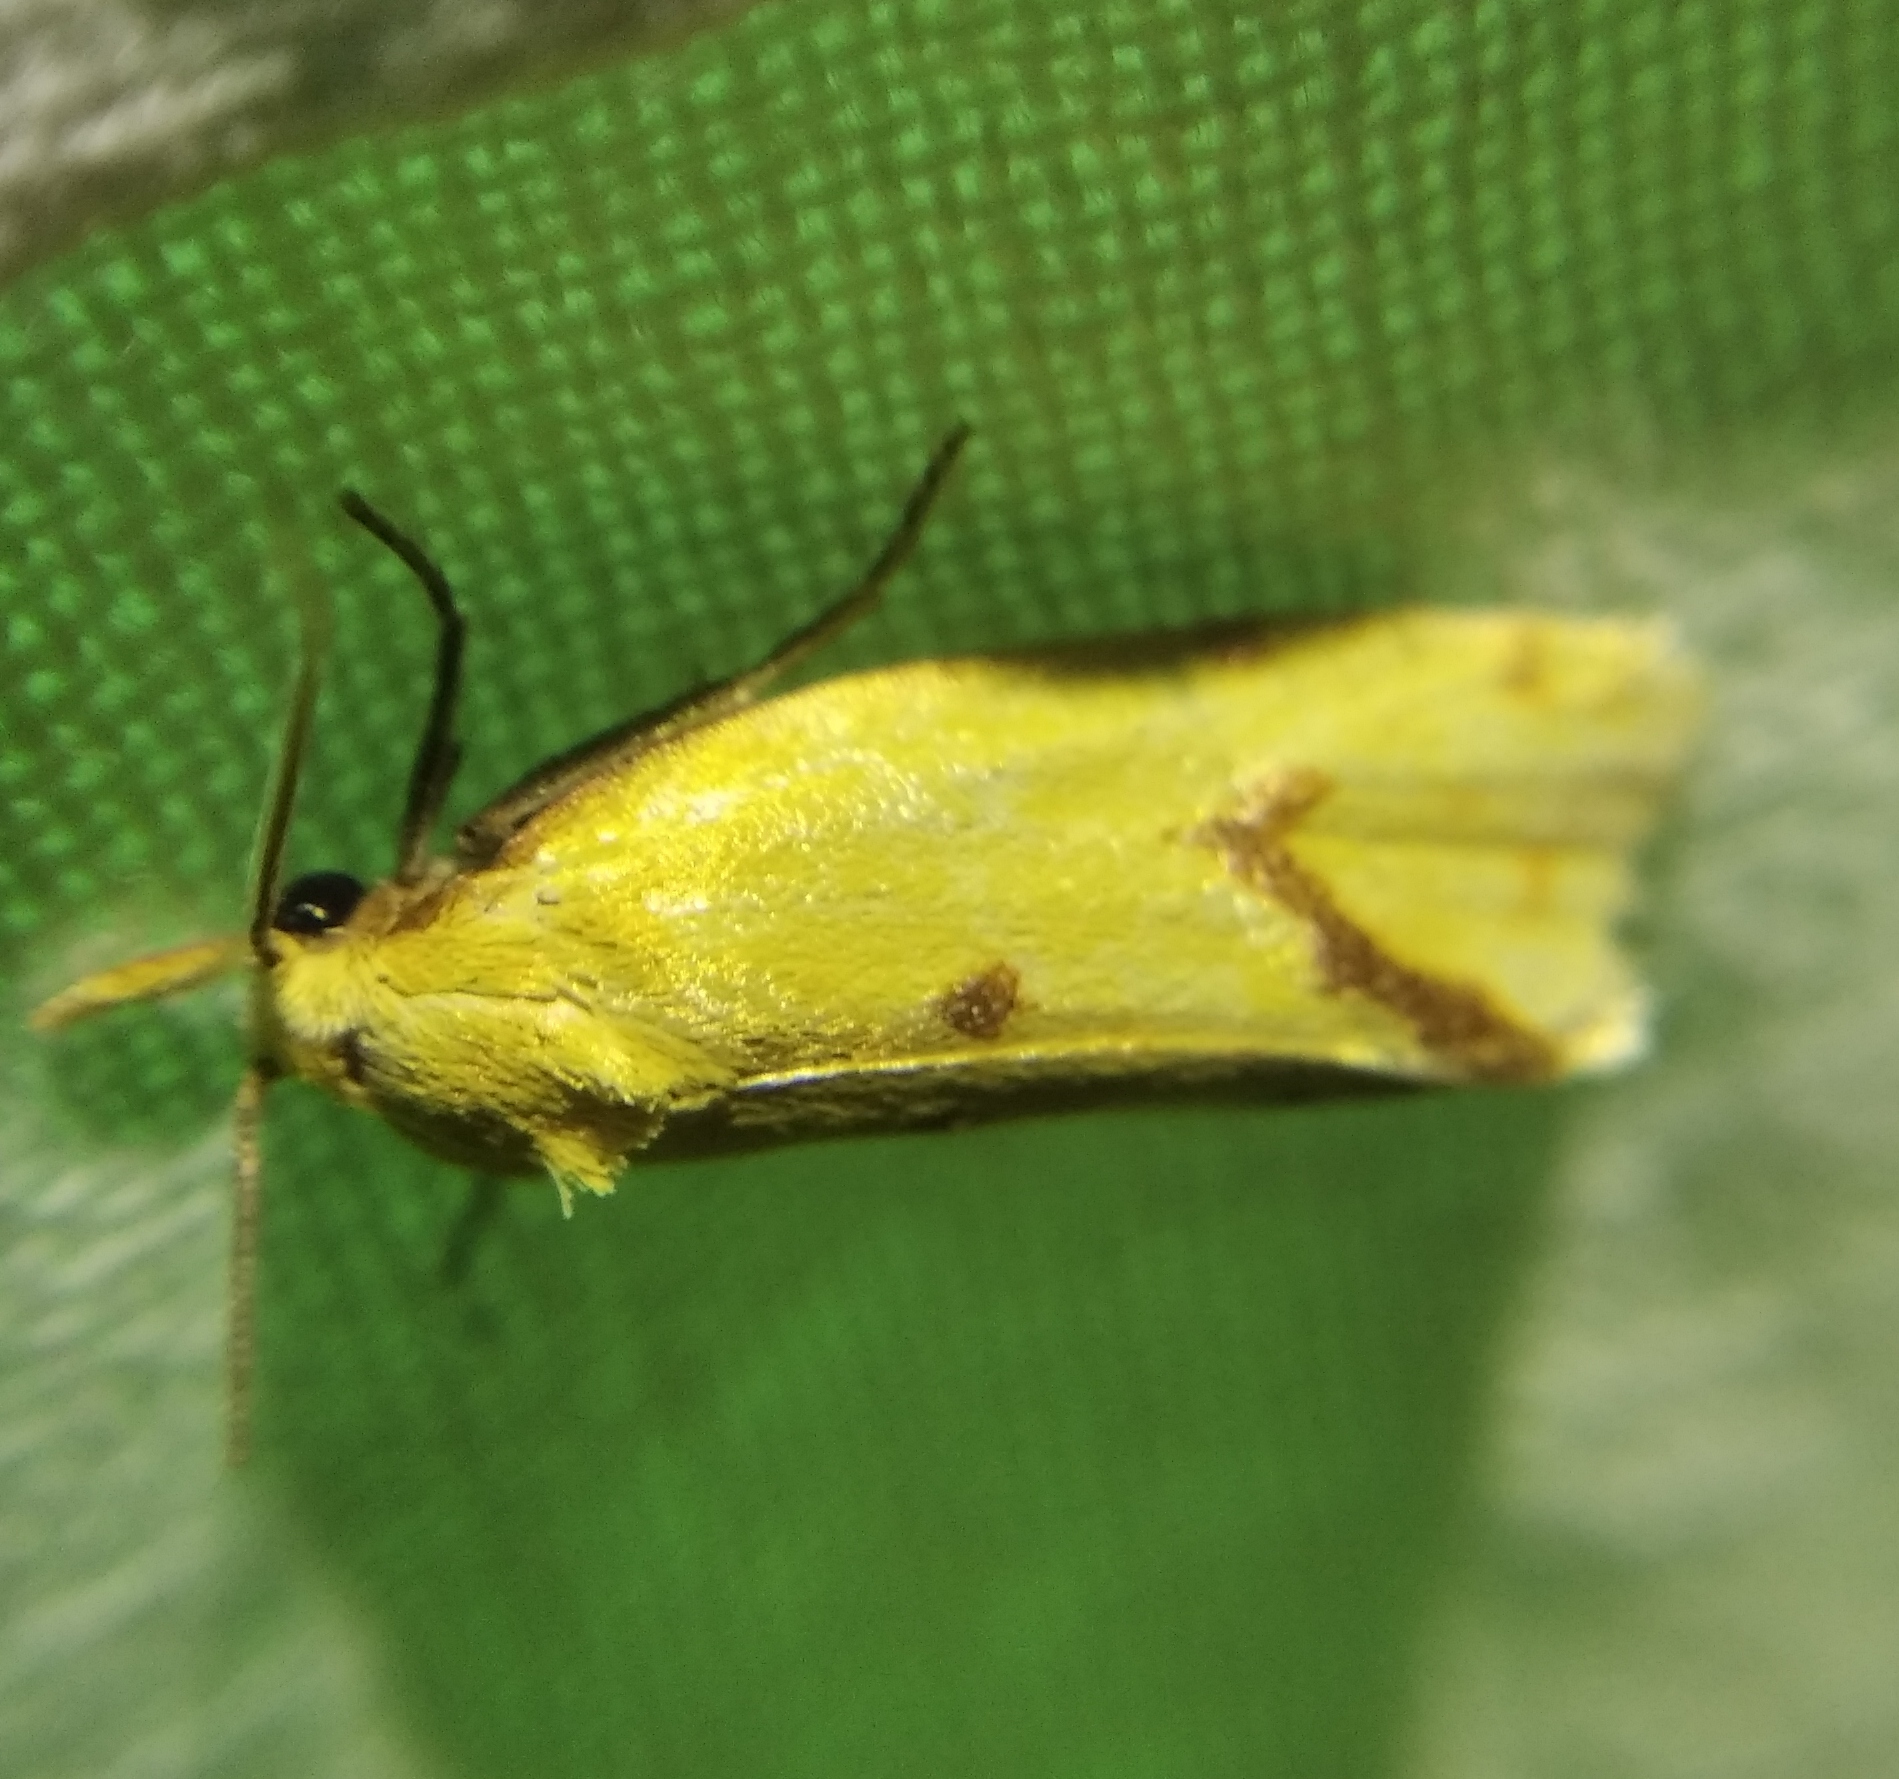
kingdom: Animalia
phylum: Arthropoda
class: Insecta
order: Lepidoptera
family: Tortricidae
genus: Agapeta
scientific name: Agapeta hamana
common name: Common yellow conch
